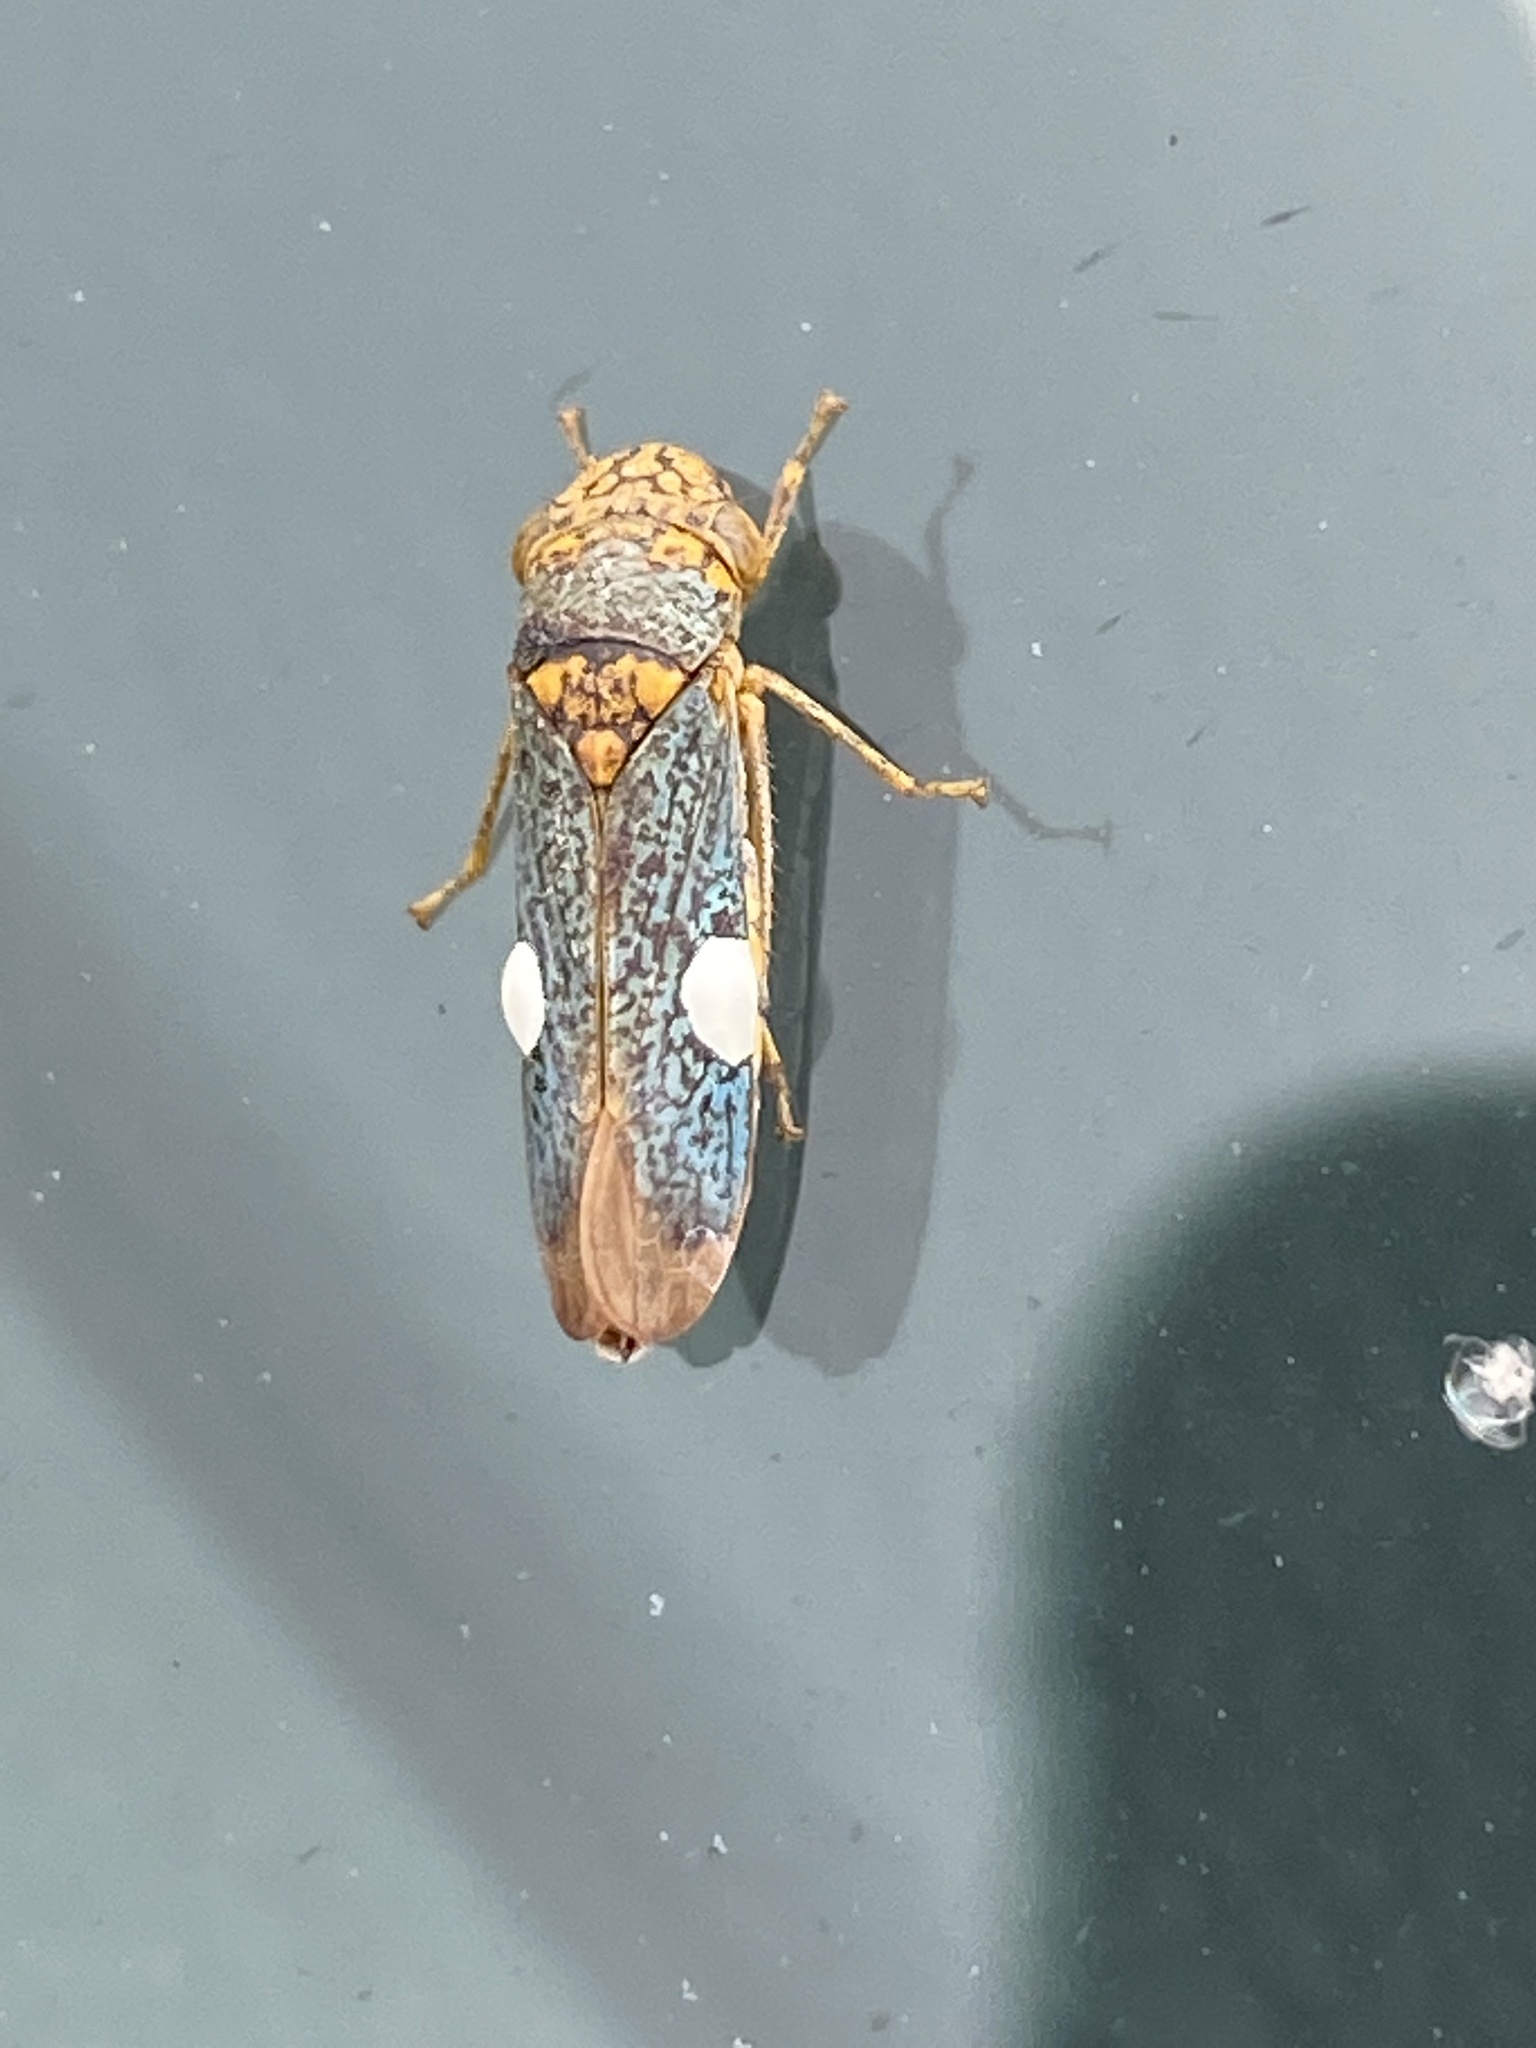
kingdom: Animalia
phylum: Arthropoda
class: Insecta
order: Hemiptera
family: Cicadellidae
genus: Oncometopia
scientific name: Oncometopia orbona
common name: Broad-headed sharpshooter
